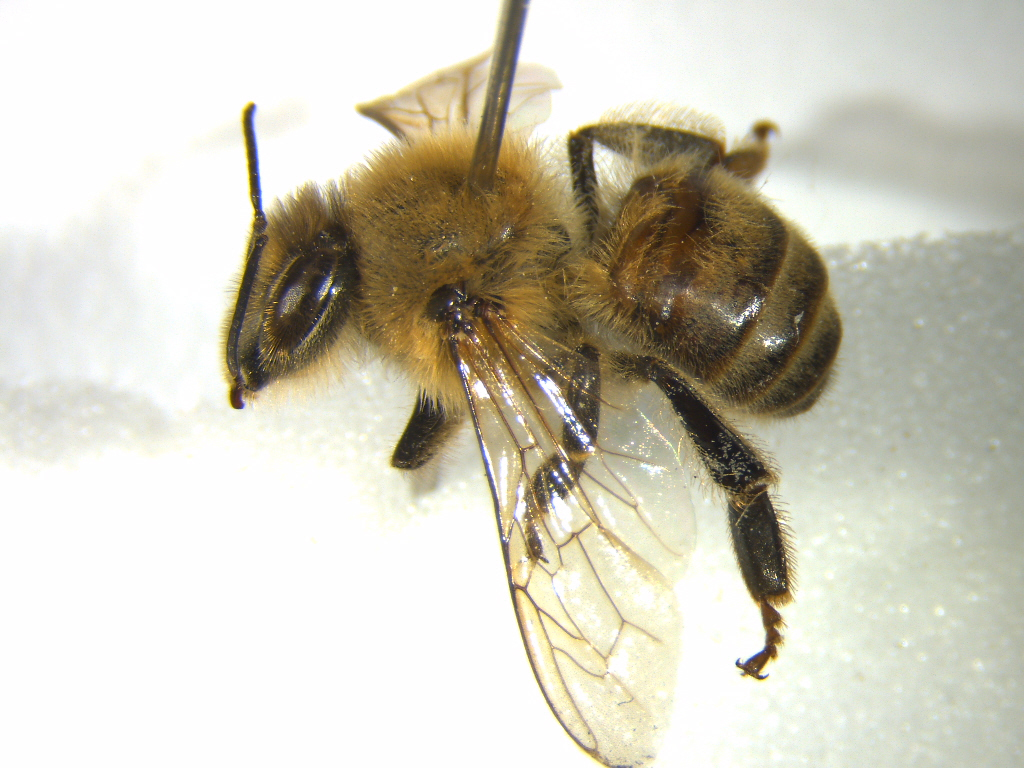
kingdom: Animalia
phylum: Arthropoda
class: Insecta
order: Hymenoptera
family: Apidae
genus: Apis
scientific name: Apis mellifera
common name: Honey bee
